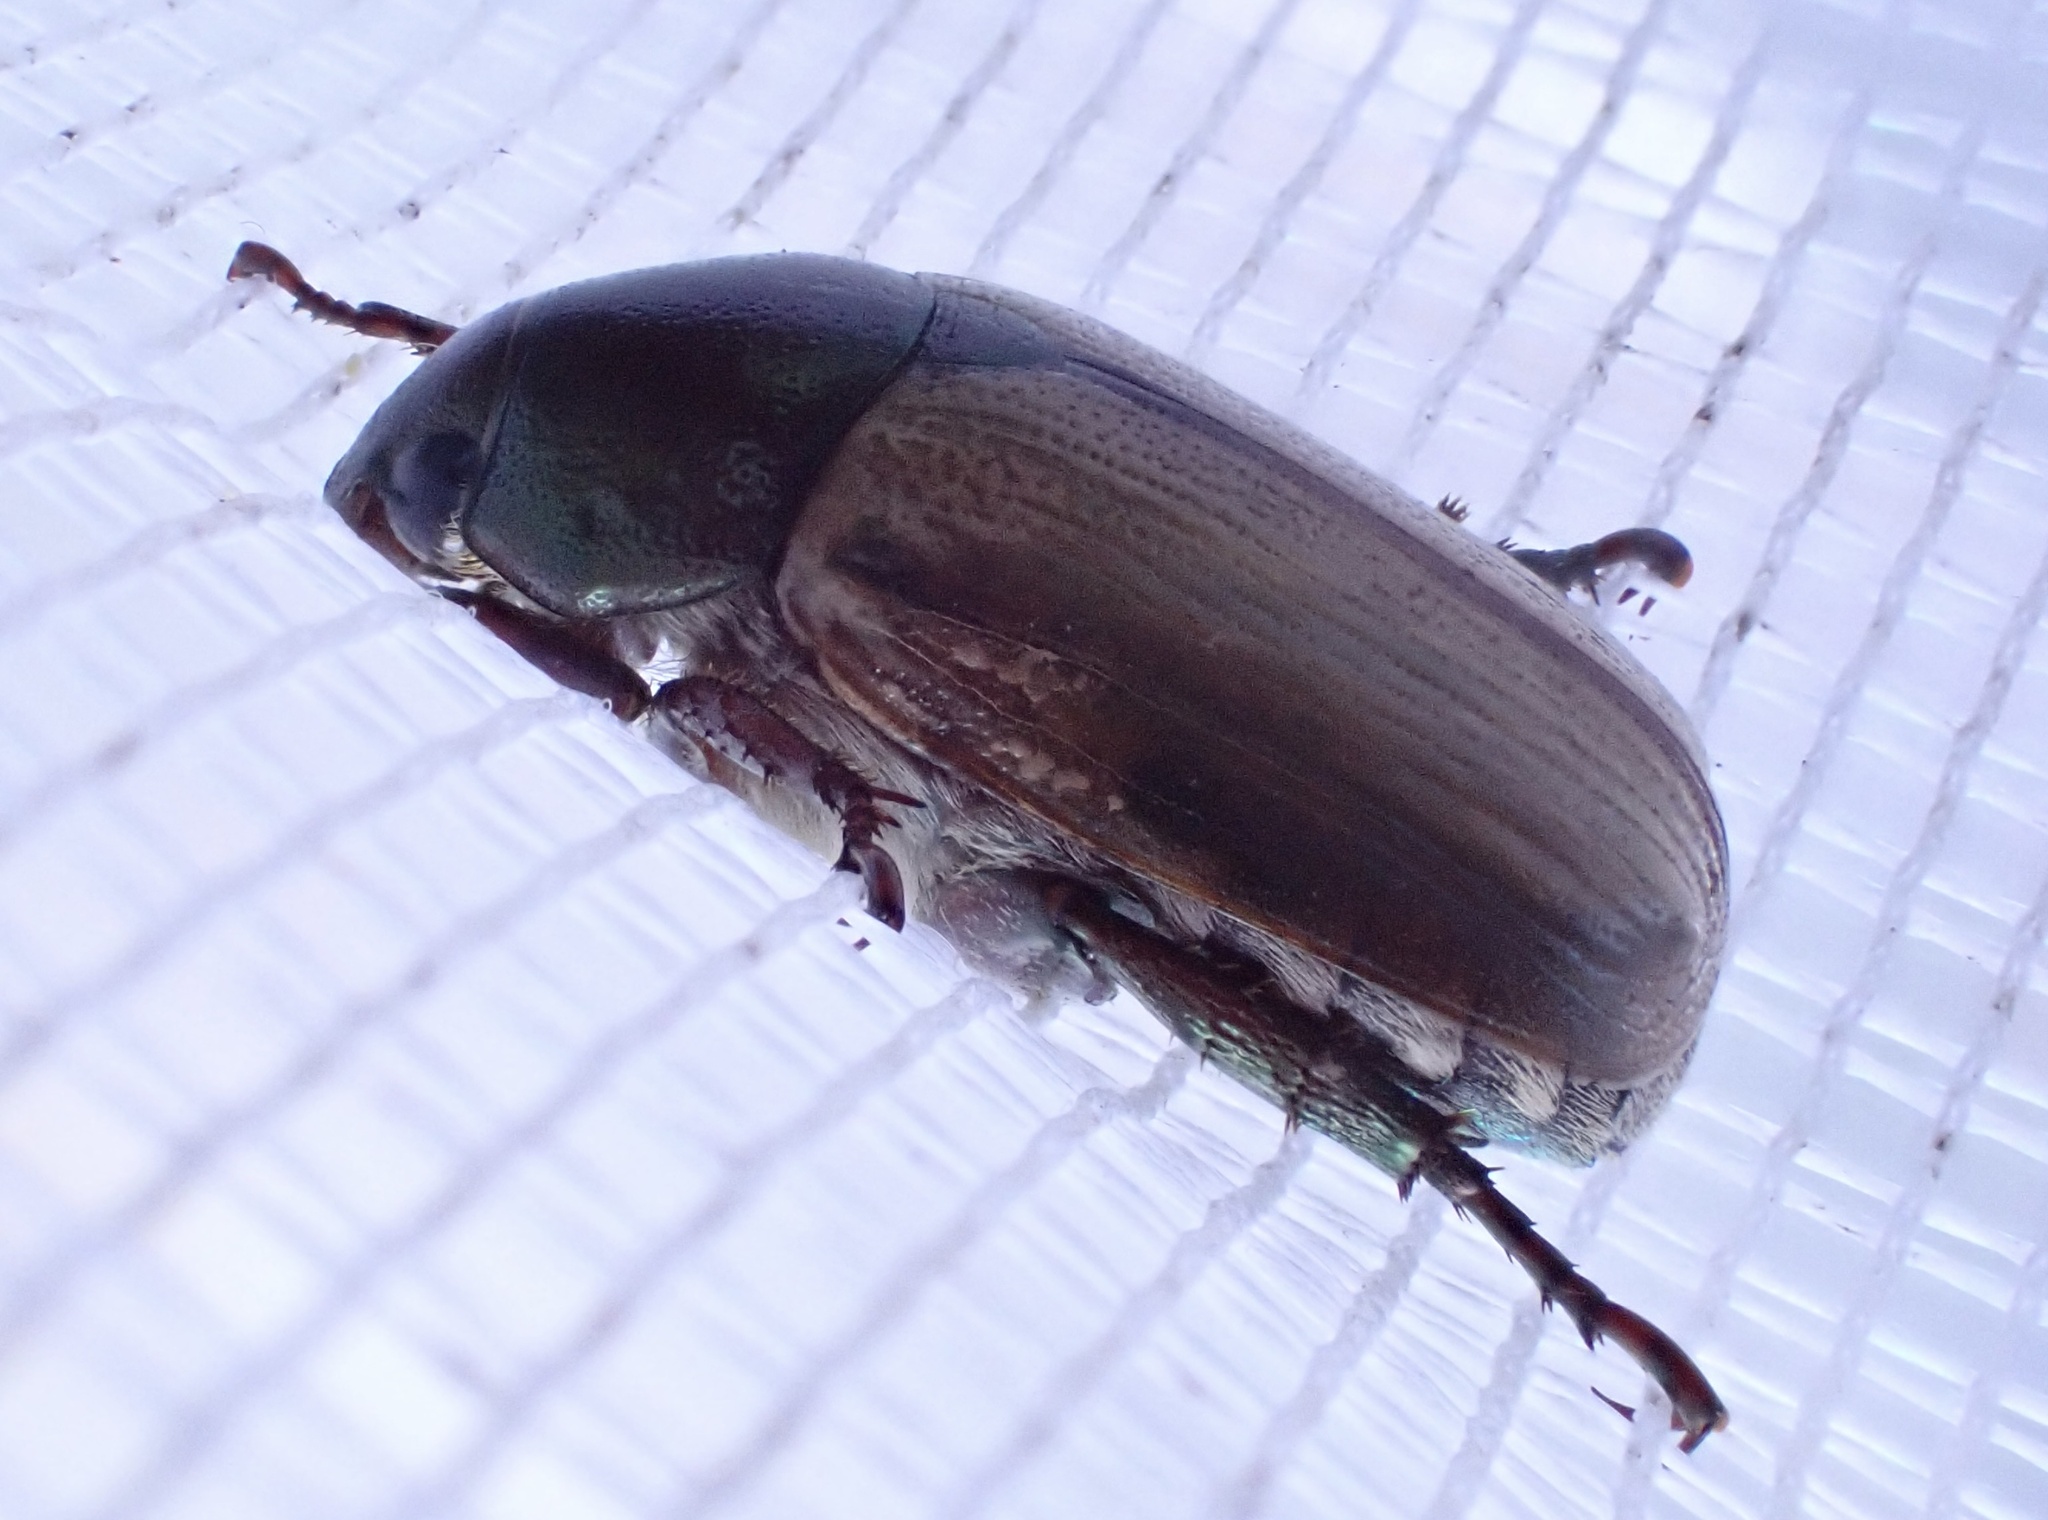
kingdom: Animalia
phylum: Arthropoda
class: Insecta
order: Coleoptera
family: Scarabaeidae
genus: Anomala
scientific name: Anomala brachycaula
